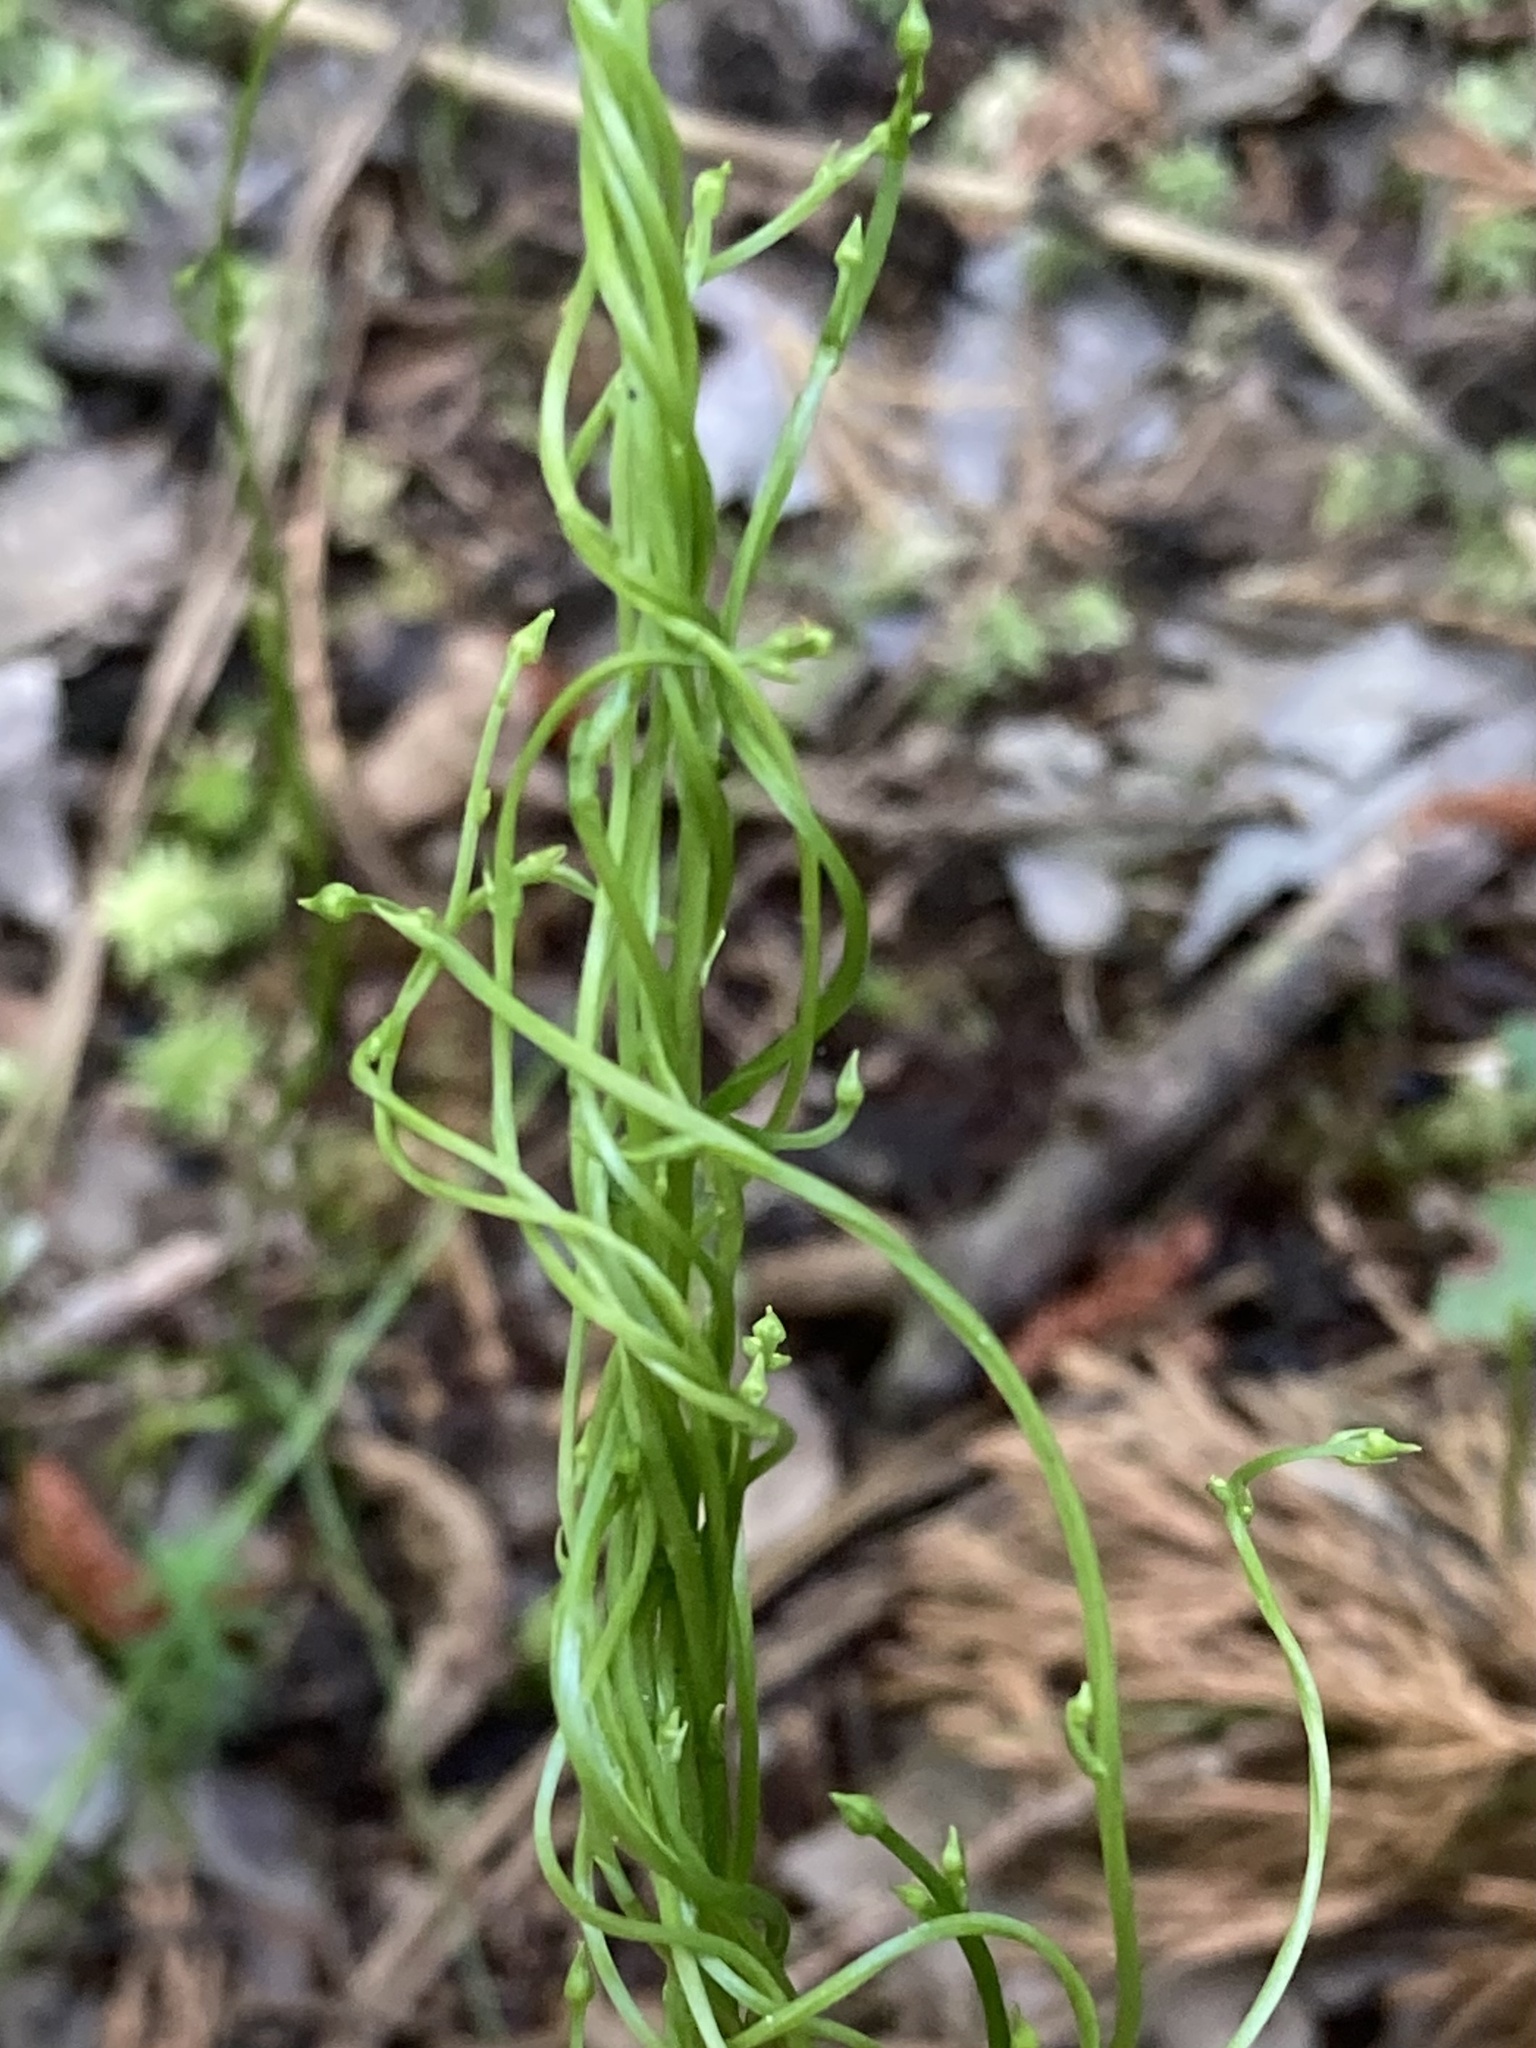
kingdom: Plantae
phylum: Tracheophyta
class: Magnoliopsida
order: Gentianales
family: Gentianaceae
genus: Bartonia
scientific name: Bartonia virginica
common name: Yellow bartonia
